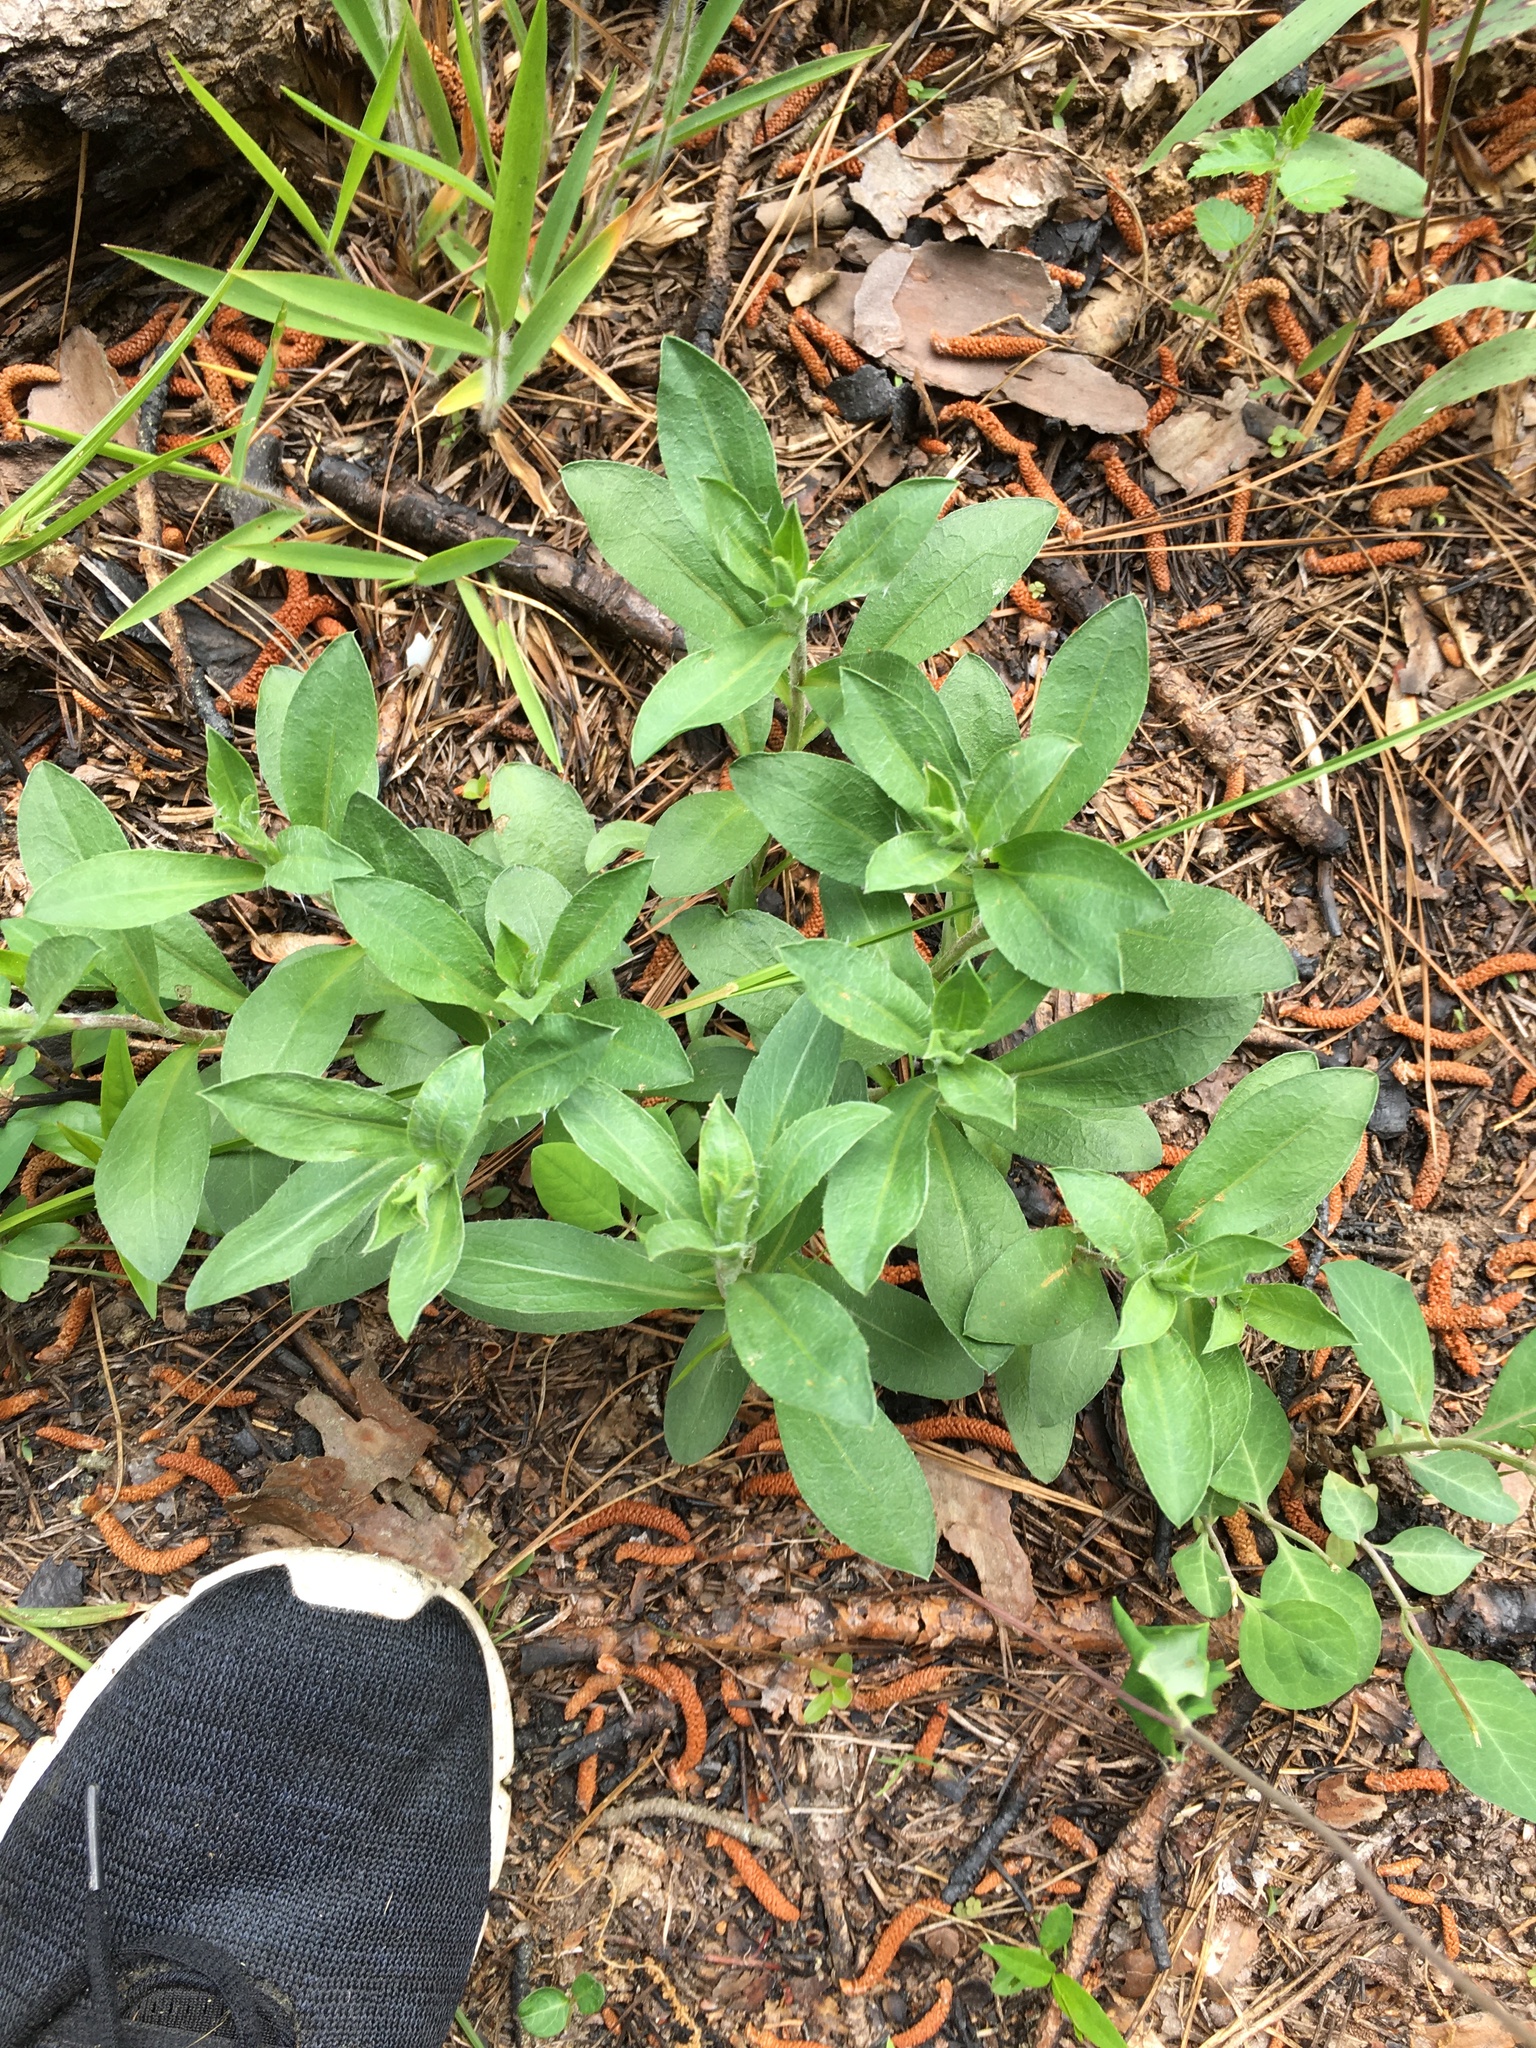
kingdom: Plantae
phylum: Tracheophyta
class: Magnoliopsida
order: Asterales
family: Asteraceae
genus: Chrysopsis
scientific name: Chrysopsis mariana
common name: Maryland golden-aster
